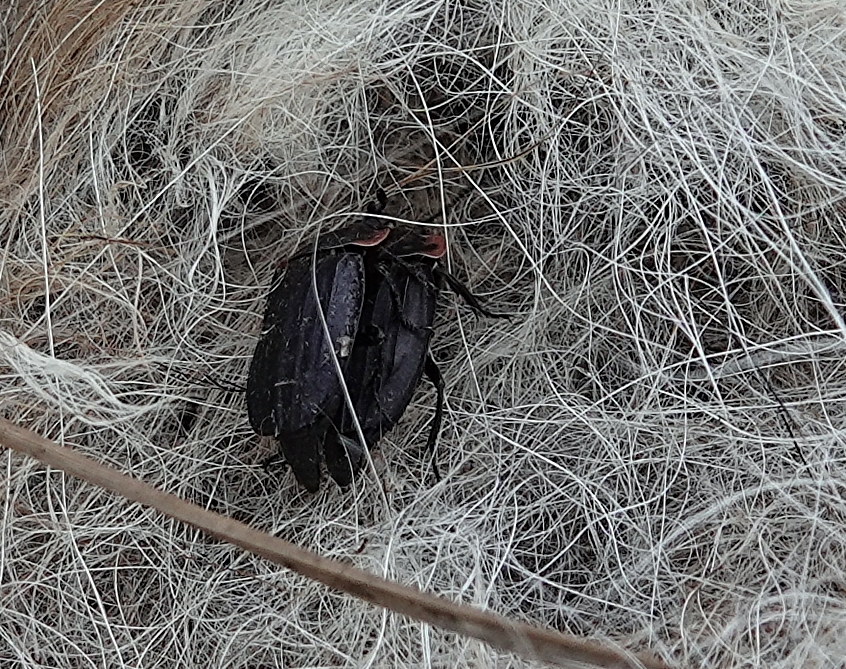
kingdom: Animalia
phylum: Arthropoda
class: Insecta
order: Coleoptera
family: Staphylinidae
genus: Oiceoptoma
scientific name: Oiceoptoma noveboracense
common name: Margined carrion beetle
